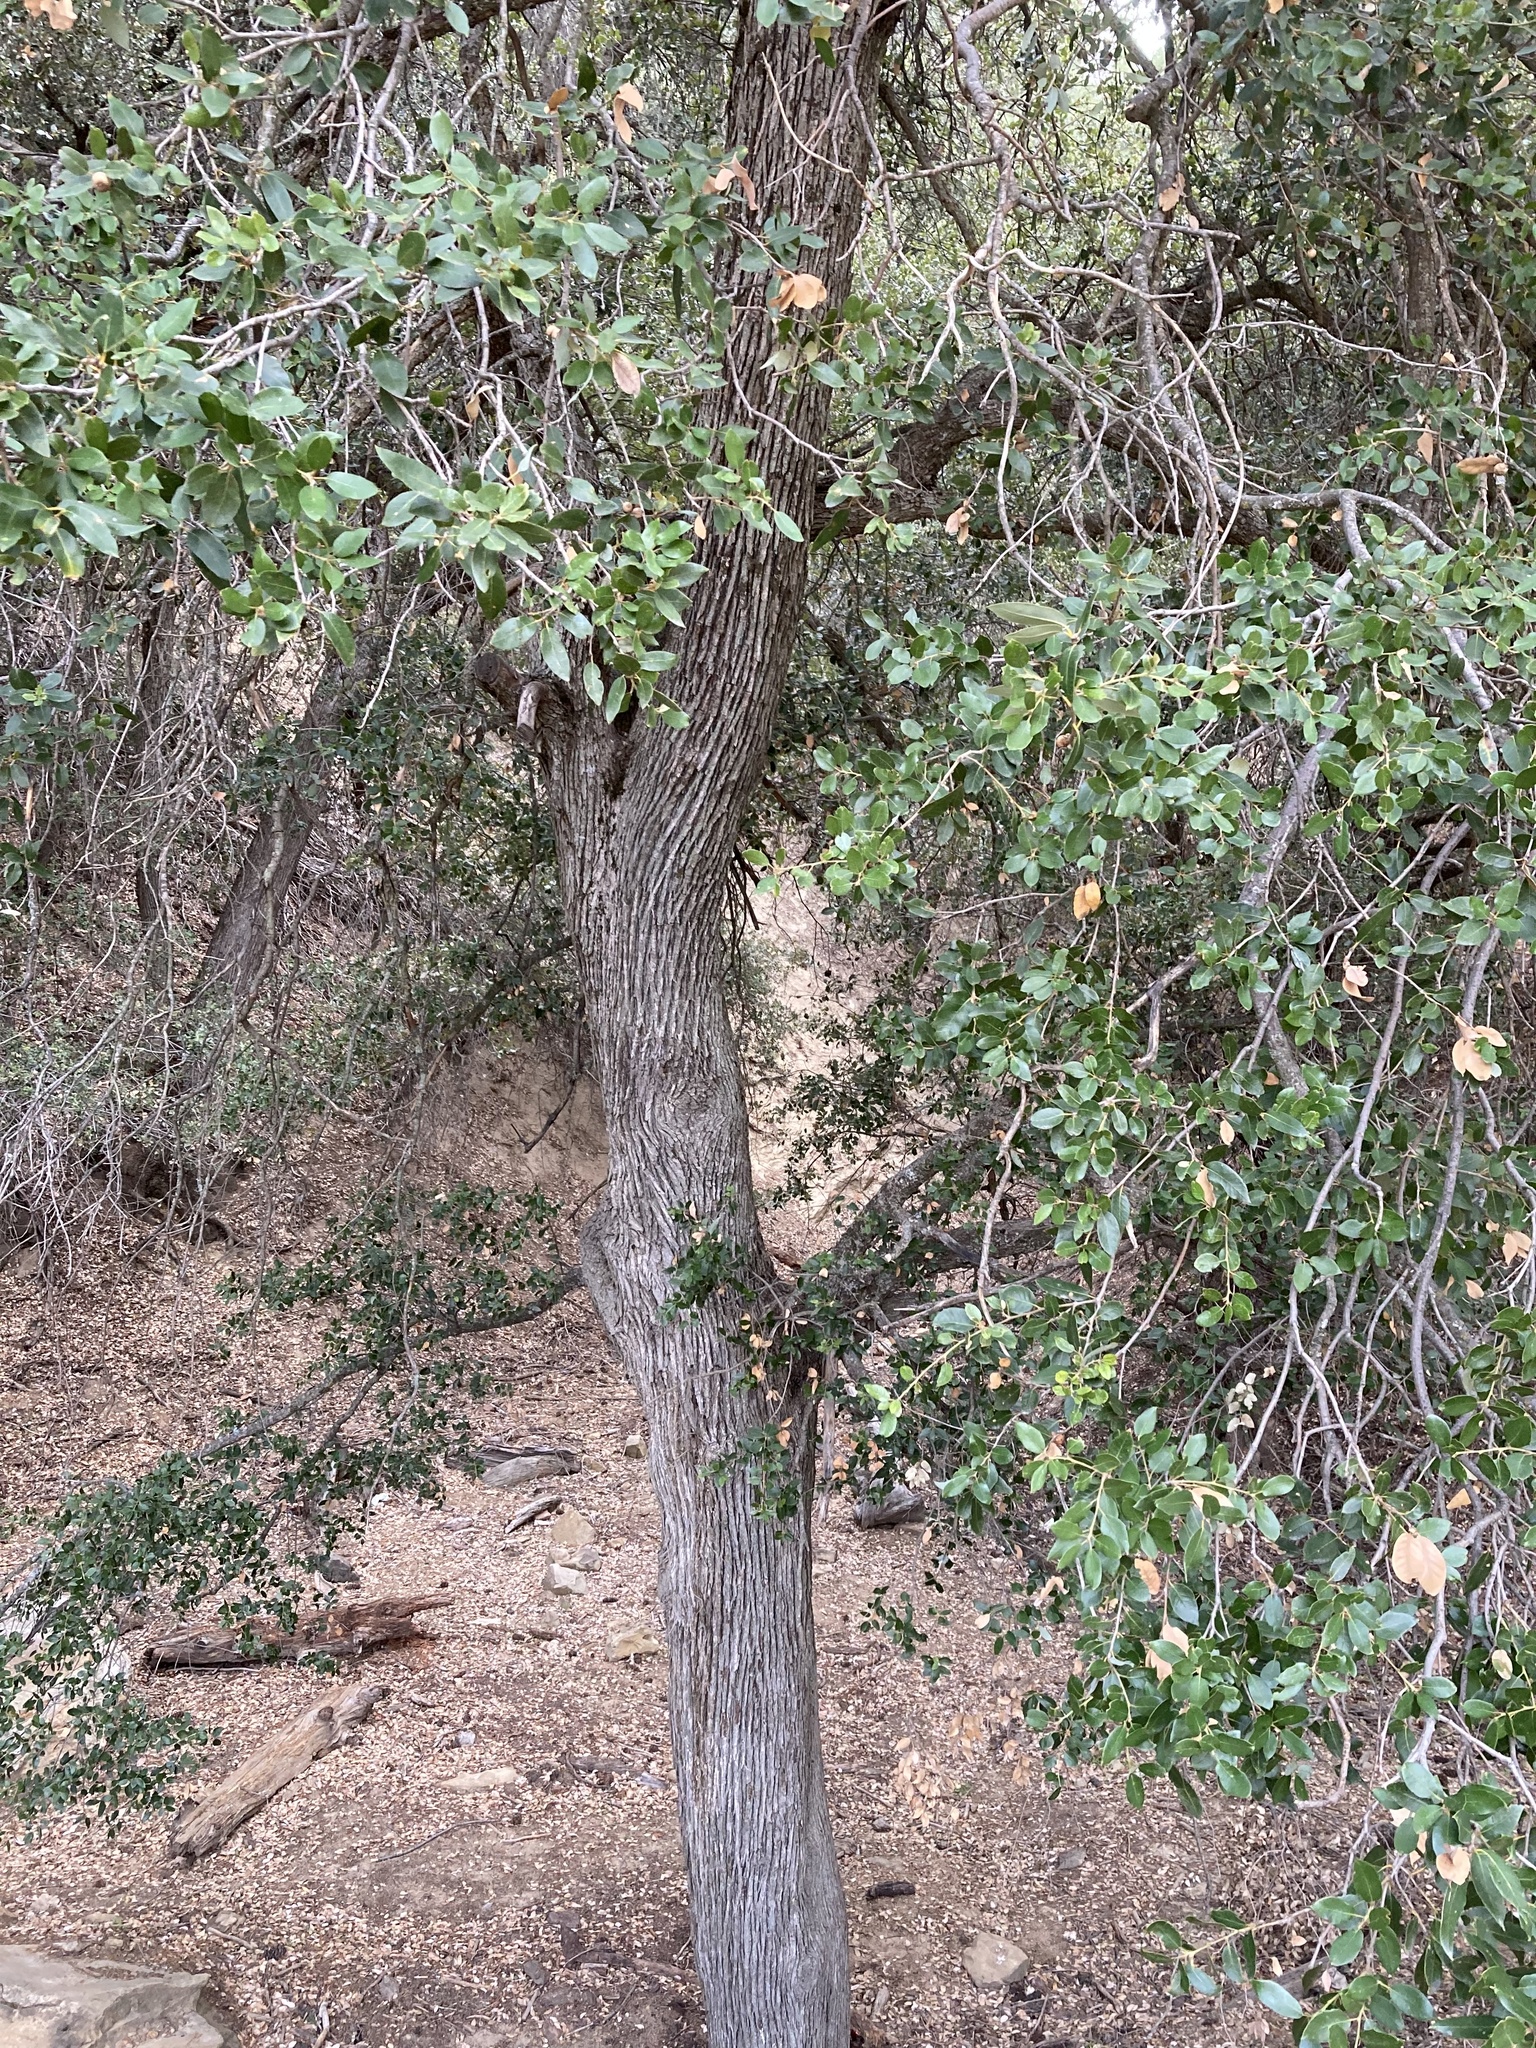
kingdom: Plantae
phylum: Tracheophyta
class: Magnoliopsida
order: Fagales
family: Fagaceae
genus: Quercus
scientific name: Quercus chrysolepis
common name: Canyon live oak
